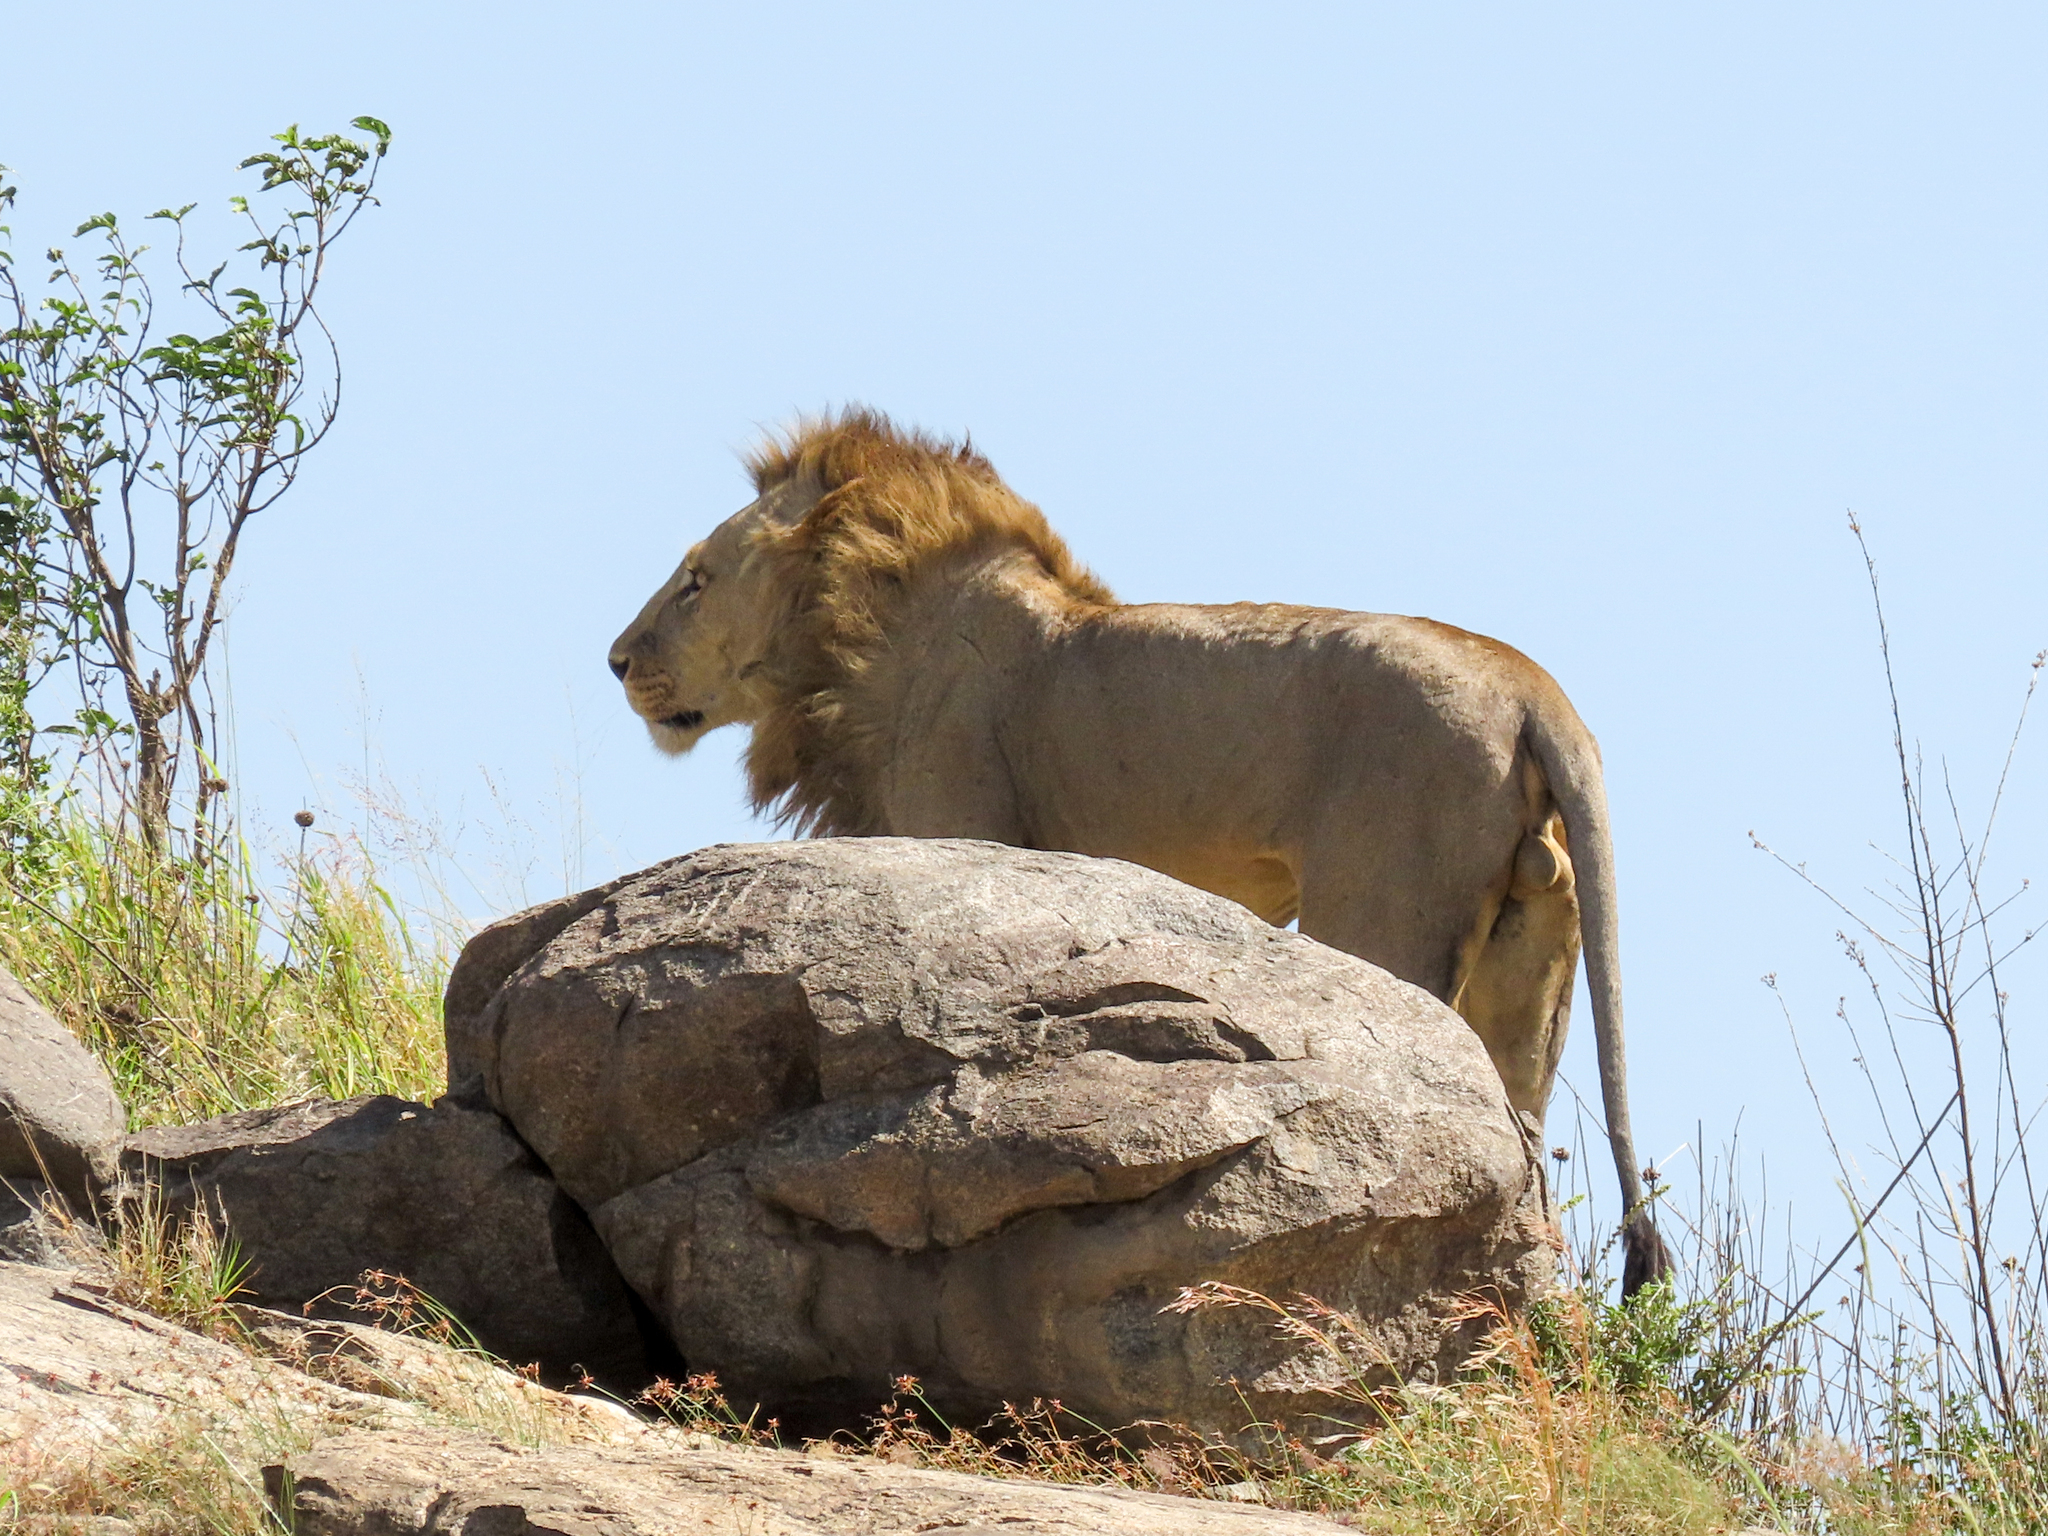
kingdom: Animalia
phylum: Chordata
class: Mammalia
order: Carnivora
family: Felidae
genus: Panthera
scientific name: Panthera leo
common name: Lion
